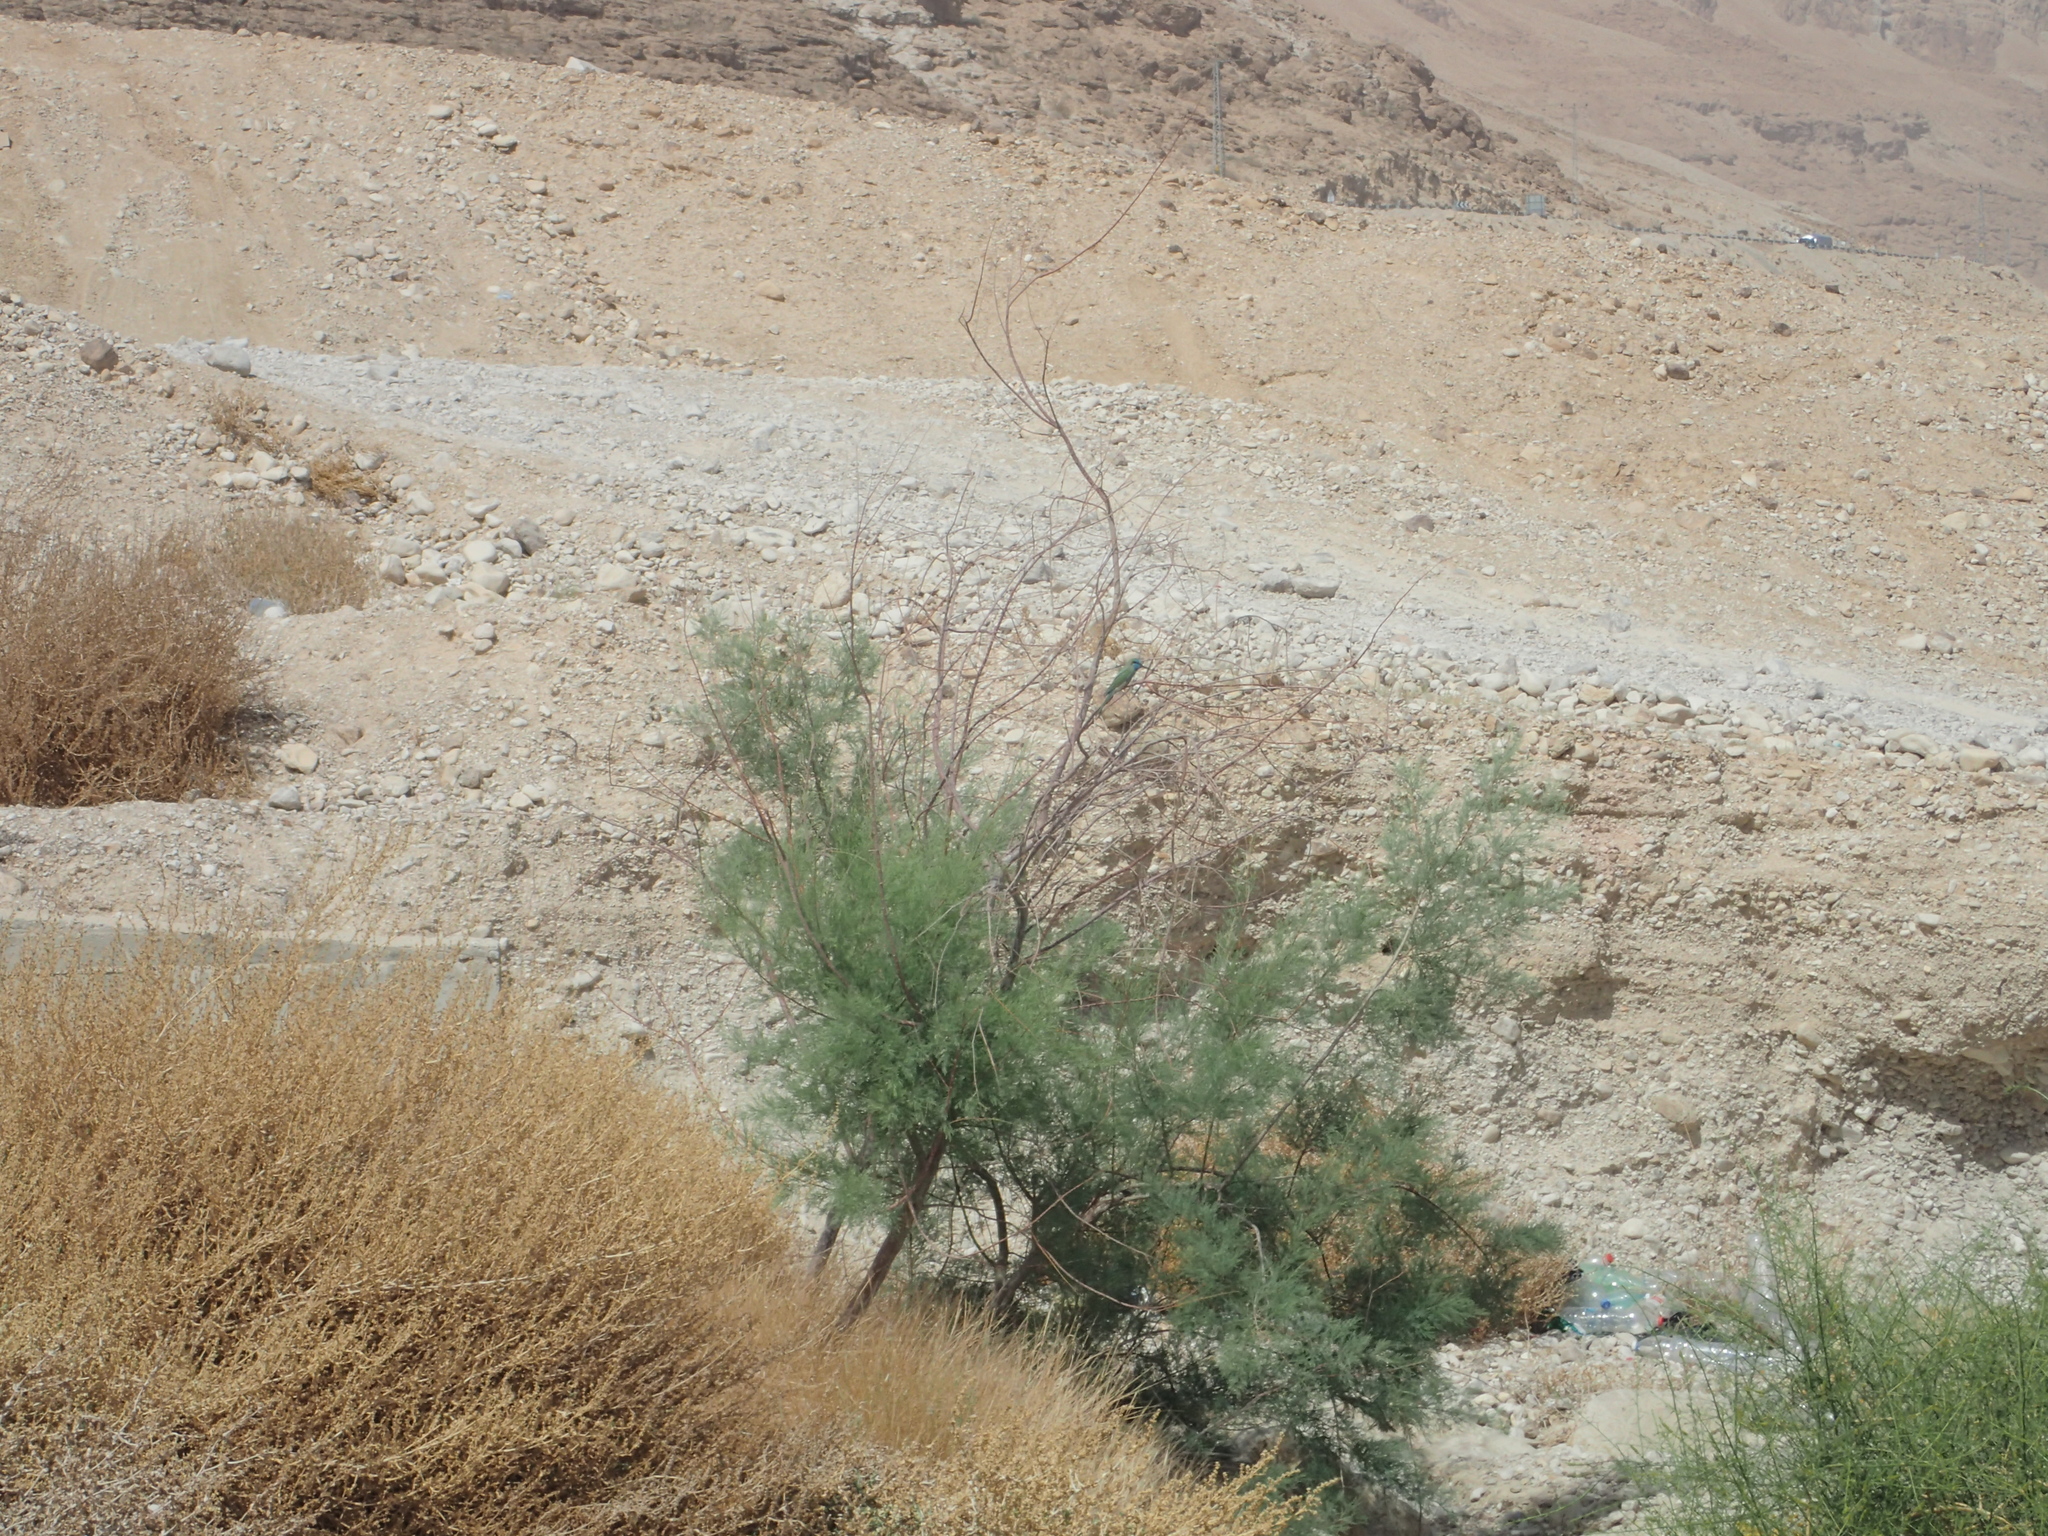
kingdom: Animalia
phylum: Chordata
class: Aves
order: Coraciiformes
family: Meropidae
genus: Merops
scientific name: Merops cyanophrys
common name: Arabian green bee-eater
